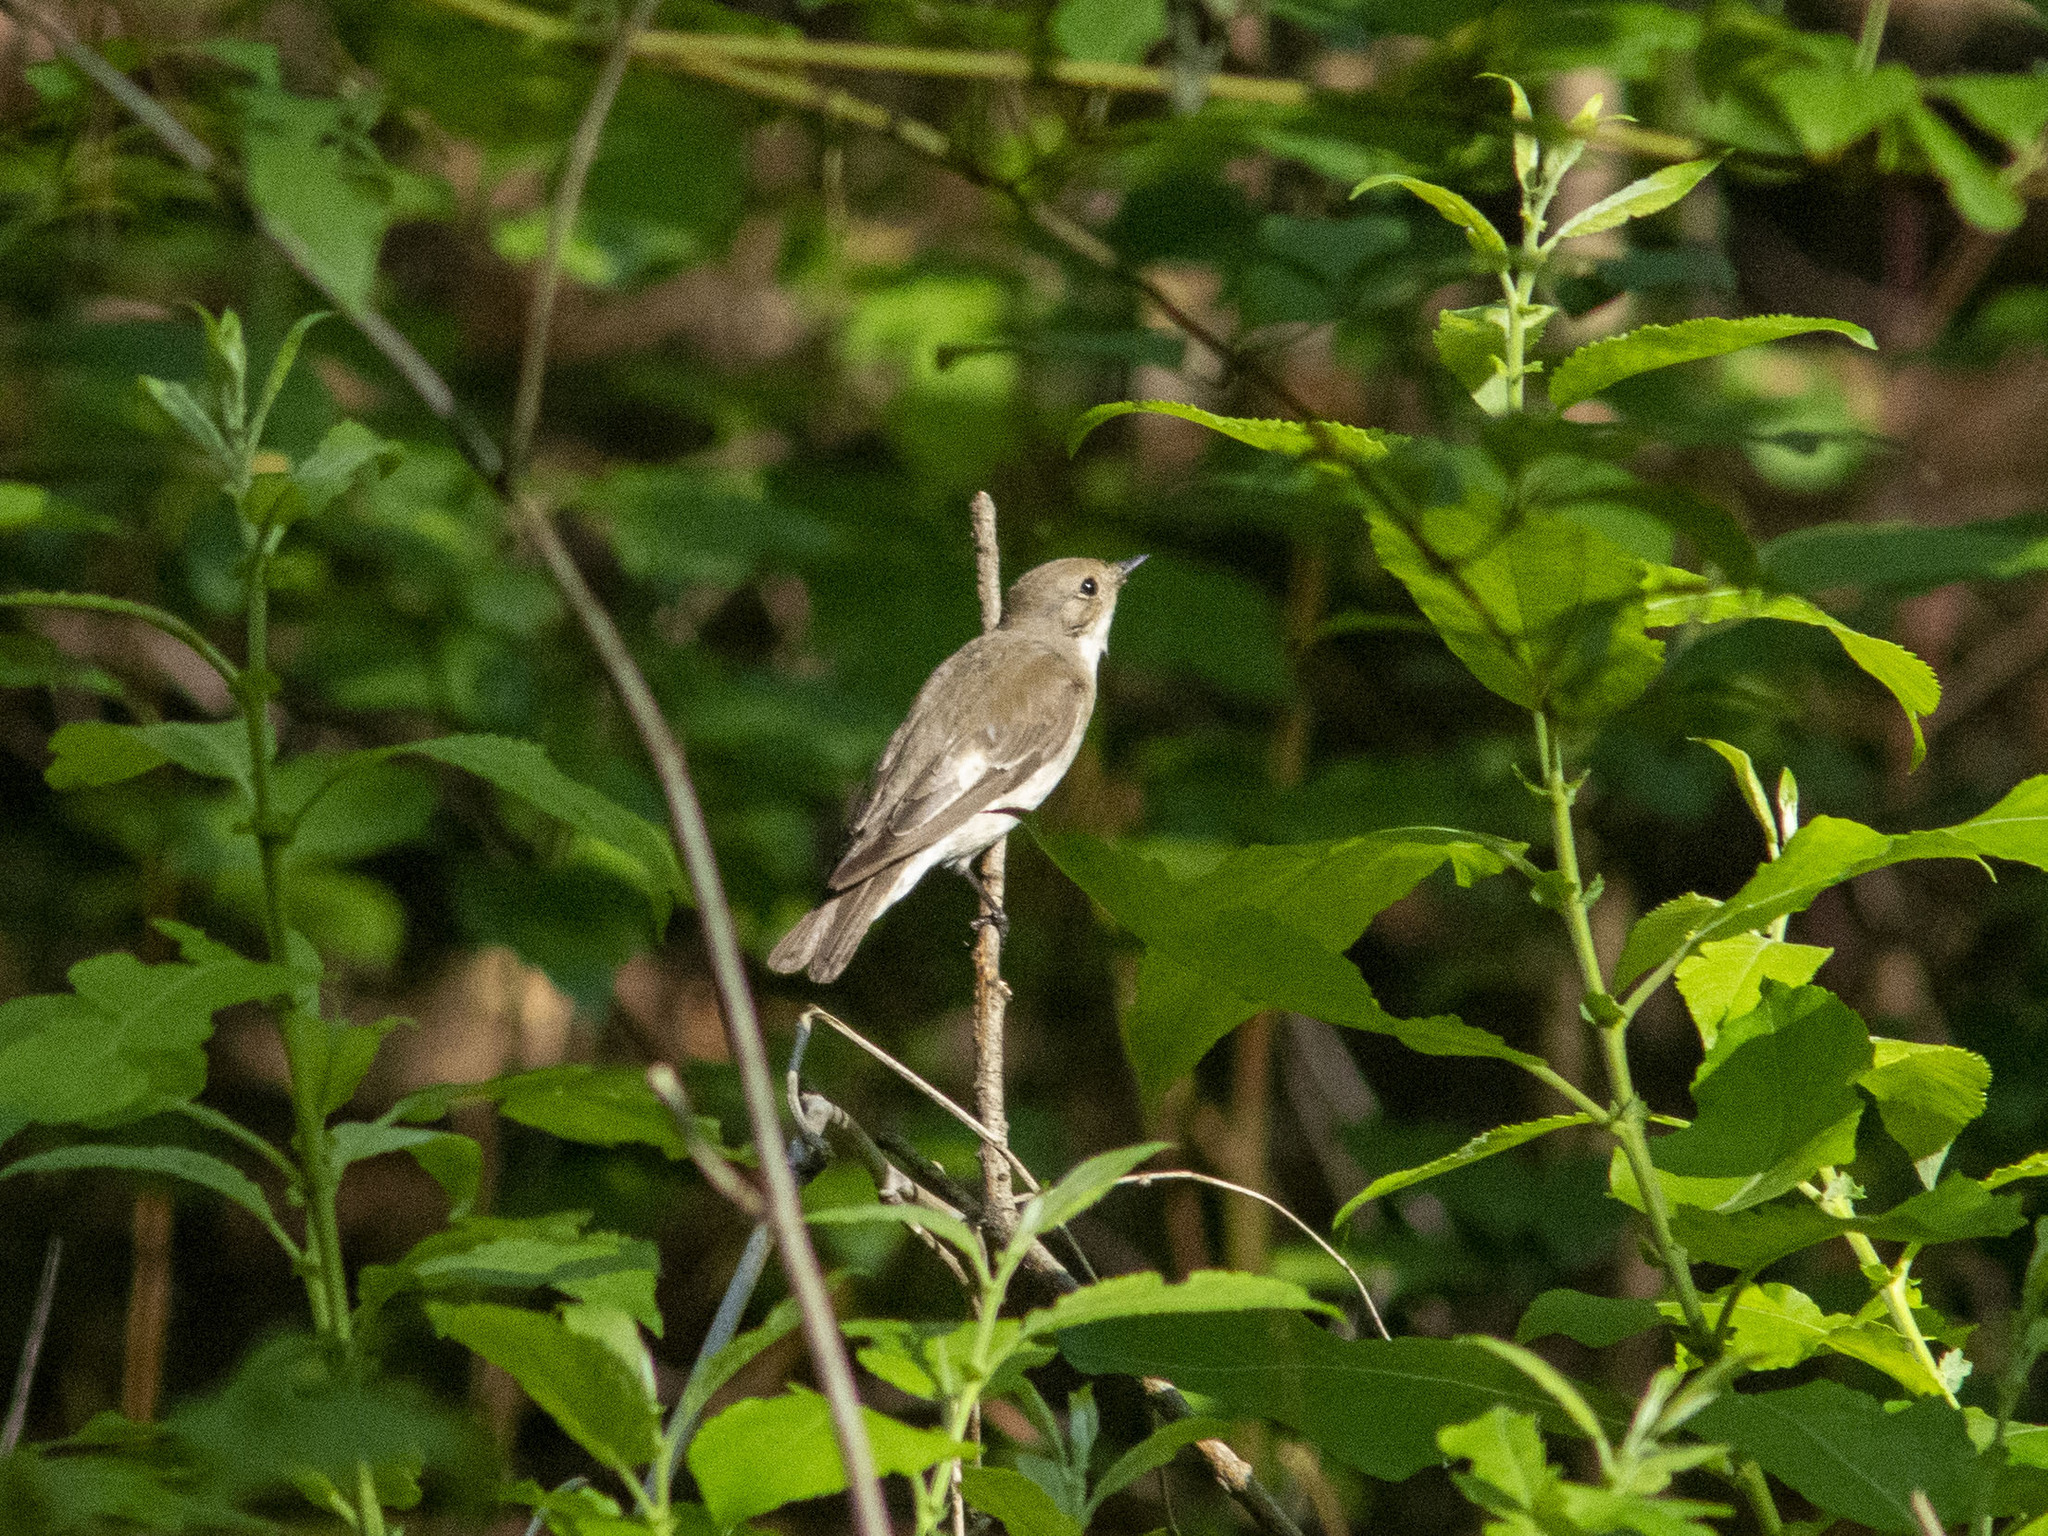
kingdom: Animalia
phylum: Chordata
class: Aves
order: Passeriformes
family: Muscicapidae
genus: Ficedula
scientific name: Ficedula hypoleuca
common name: European pied flycatcher
